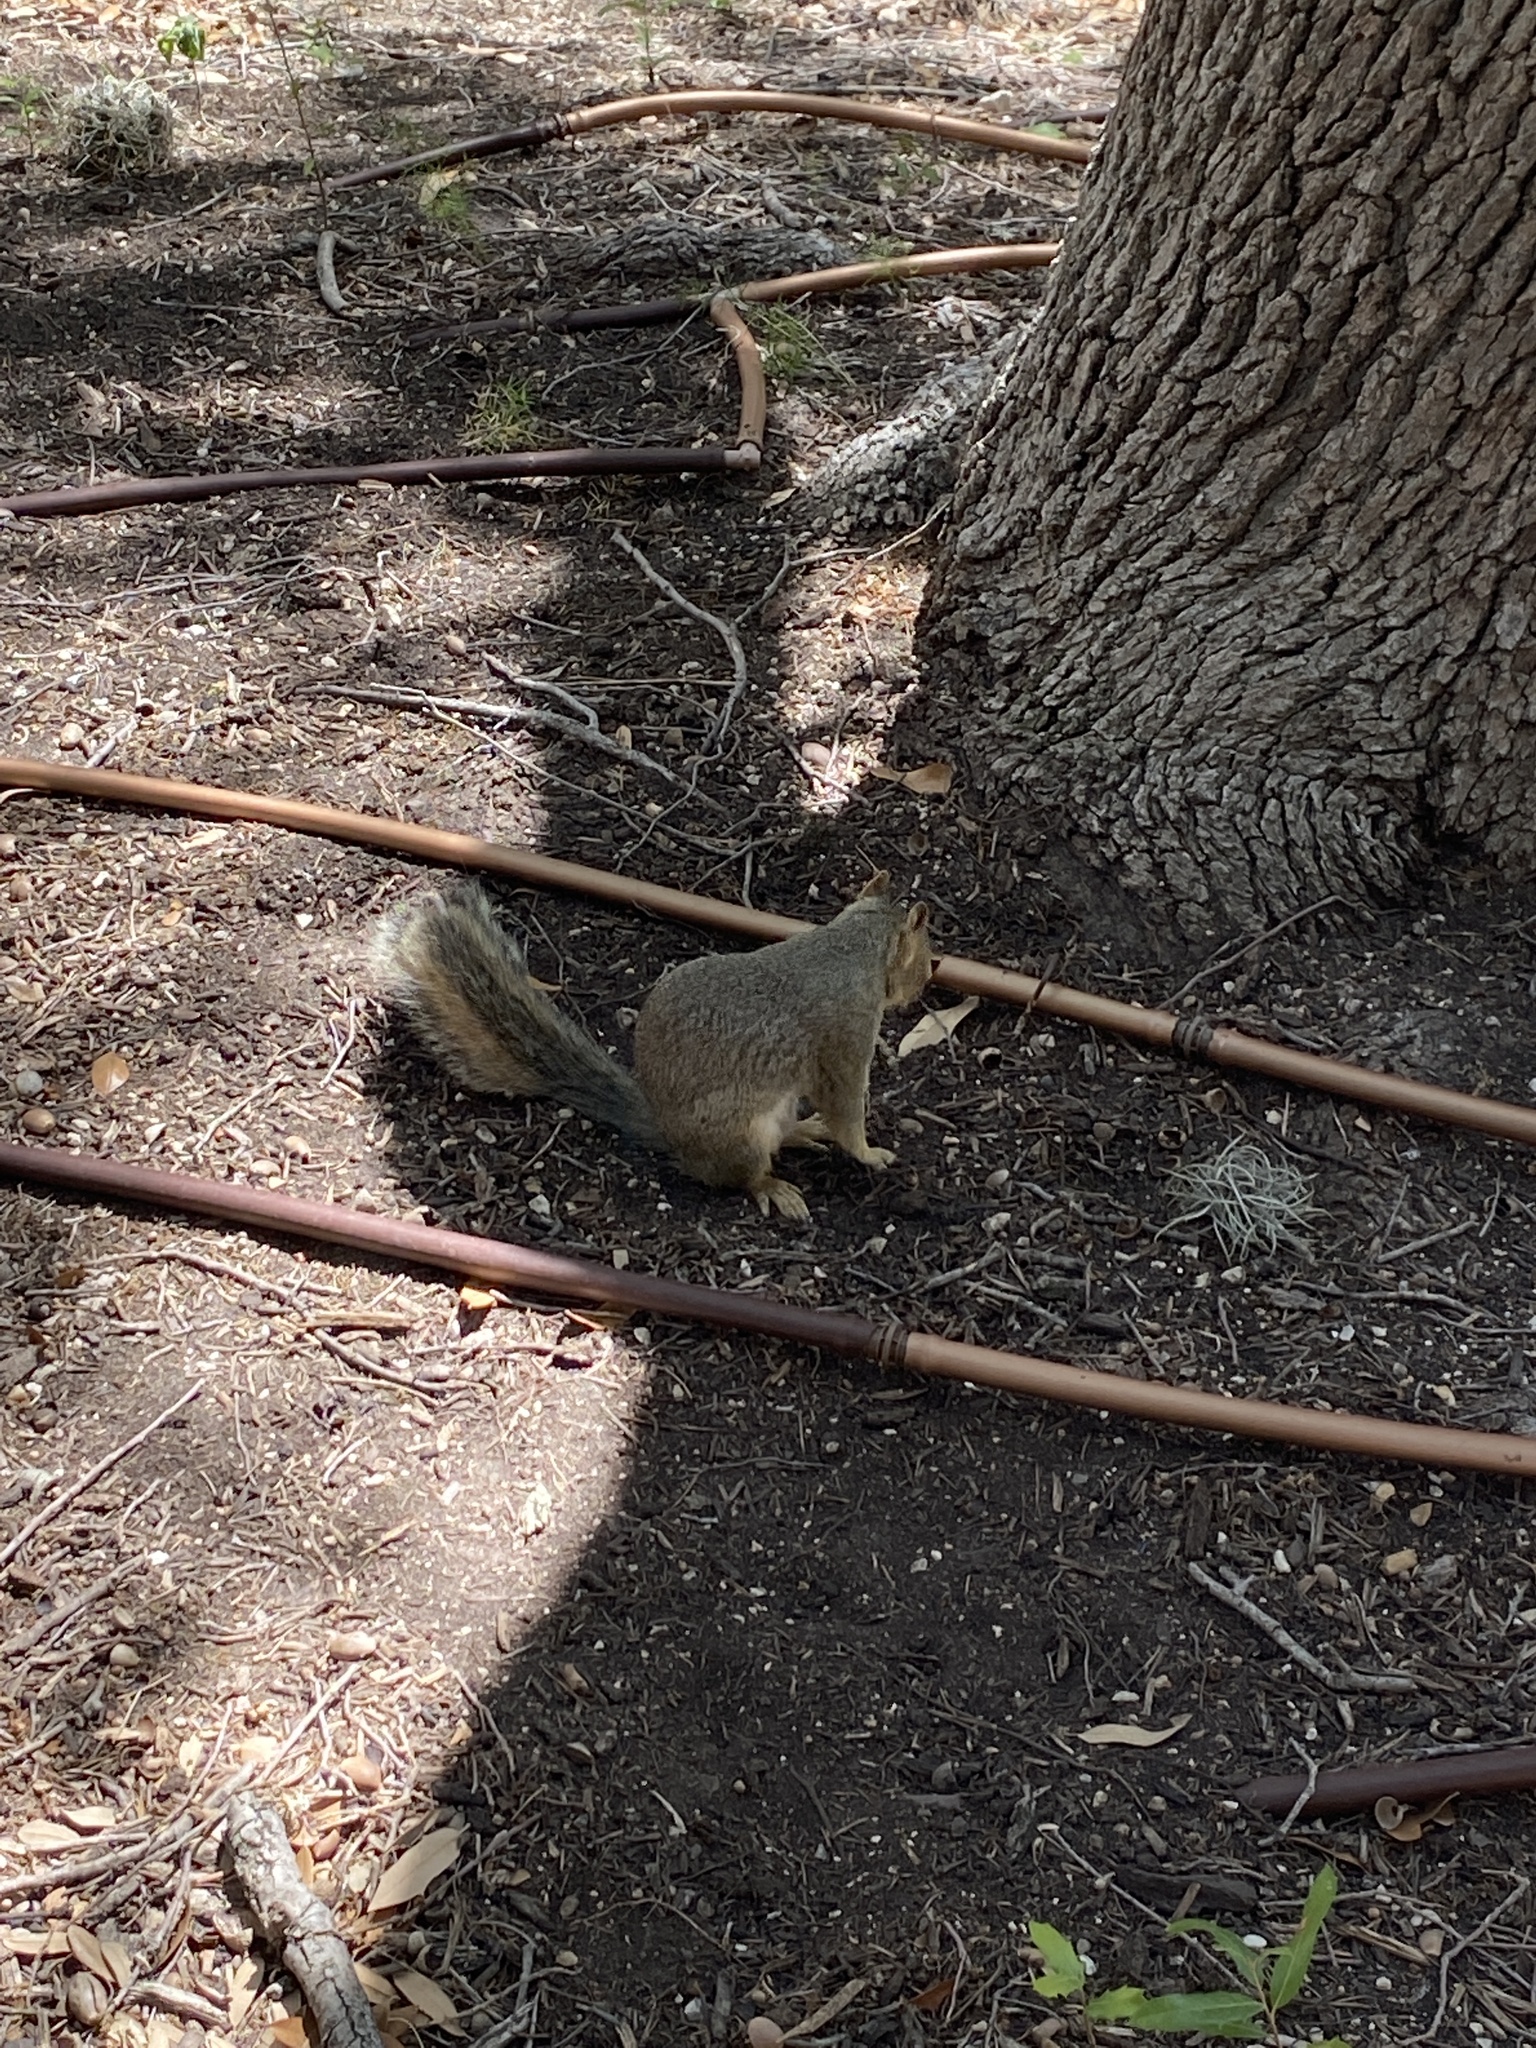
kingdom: Animalia
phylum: Chordata
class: Mammalia
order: Rodentia
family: Sciuridae
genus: Sciurus
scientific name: Sciurus niger
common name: Fox squirrel
